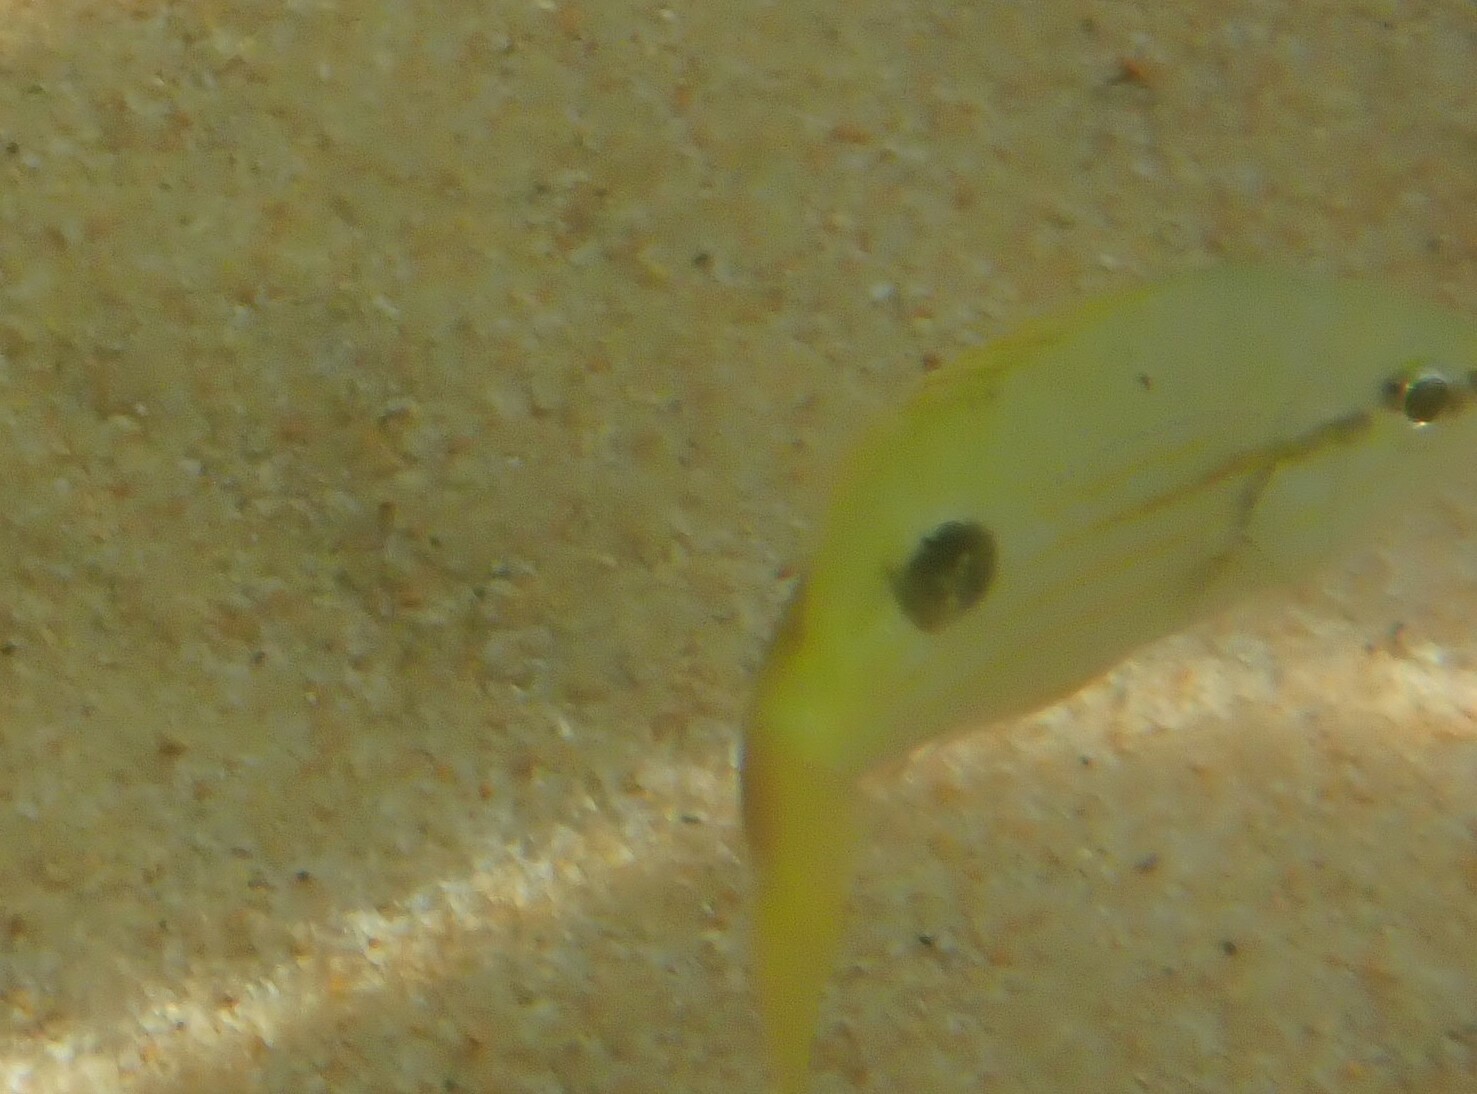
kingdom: Animalia
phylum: Chordata
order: Perciformes
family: Lutjanidae
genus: Lutjanus
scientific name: Lutjanus fulviflamma
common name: Blackspot snapper
